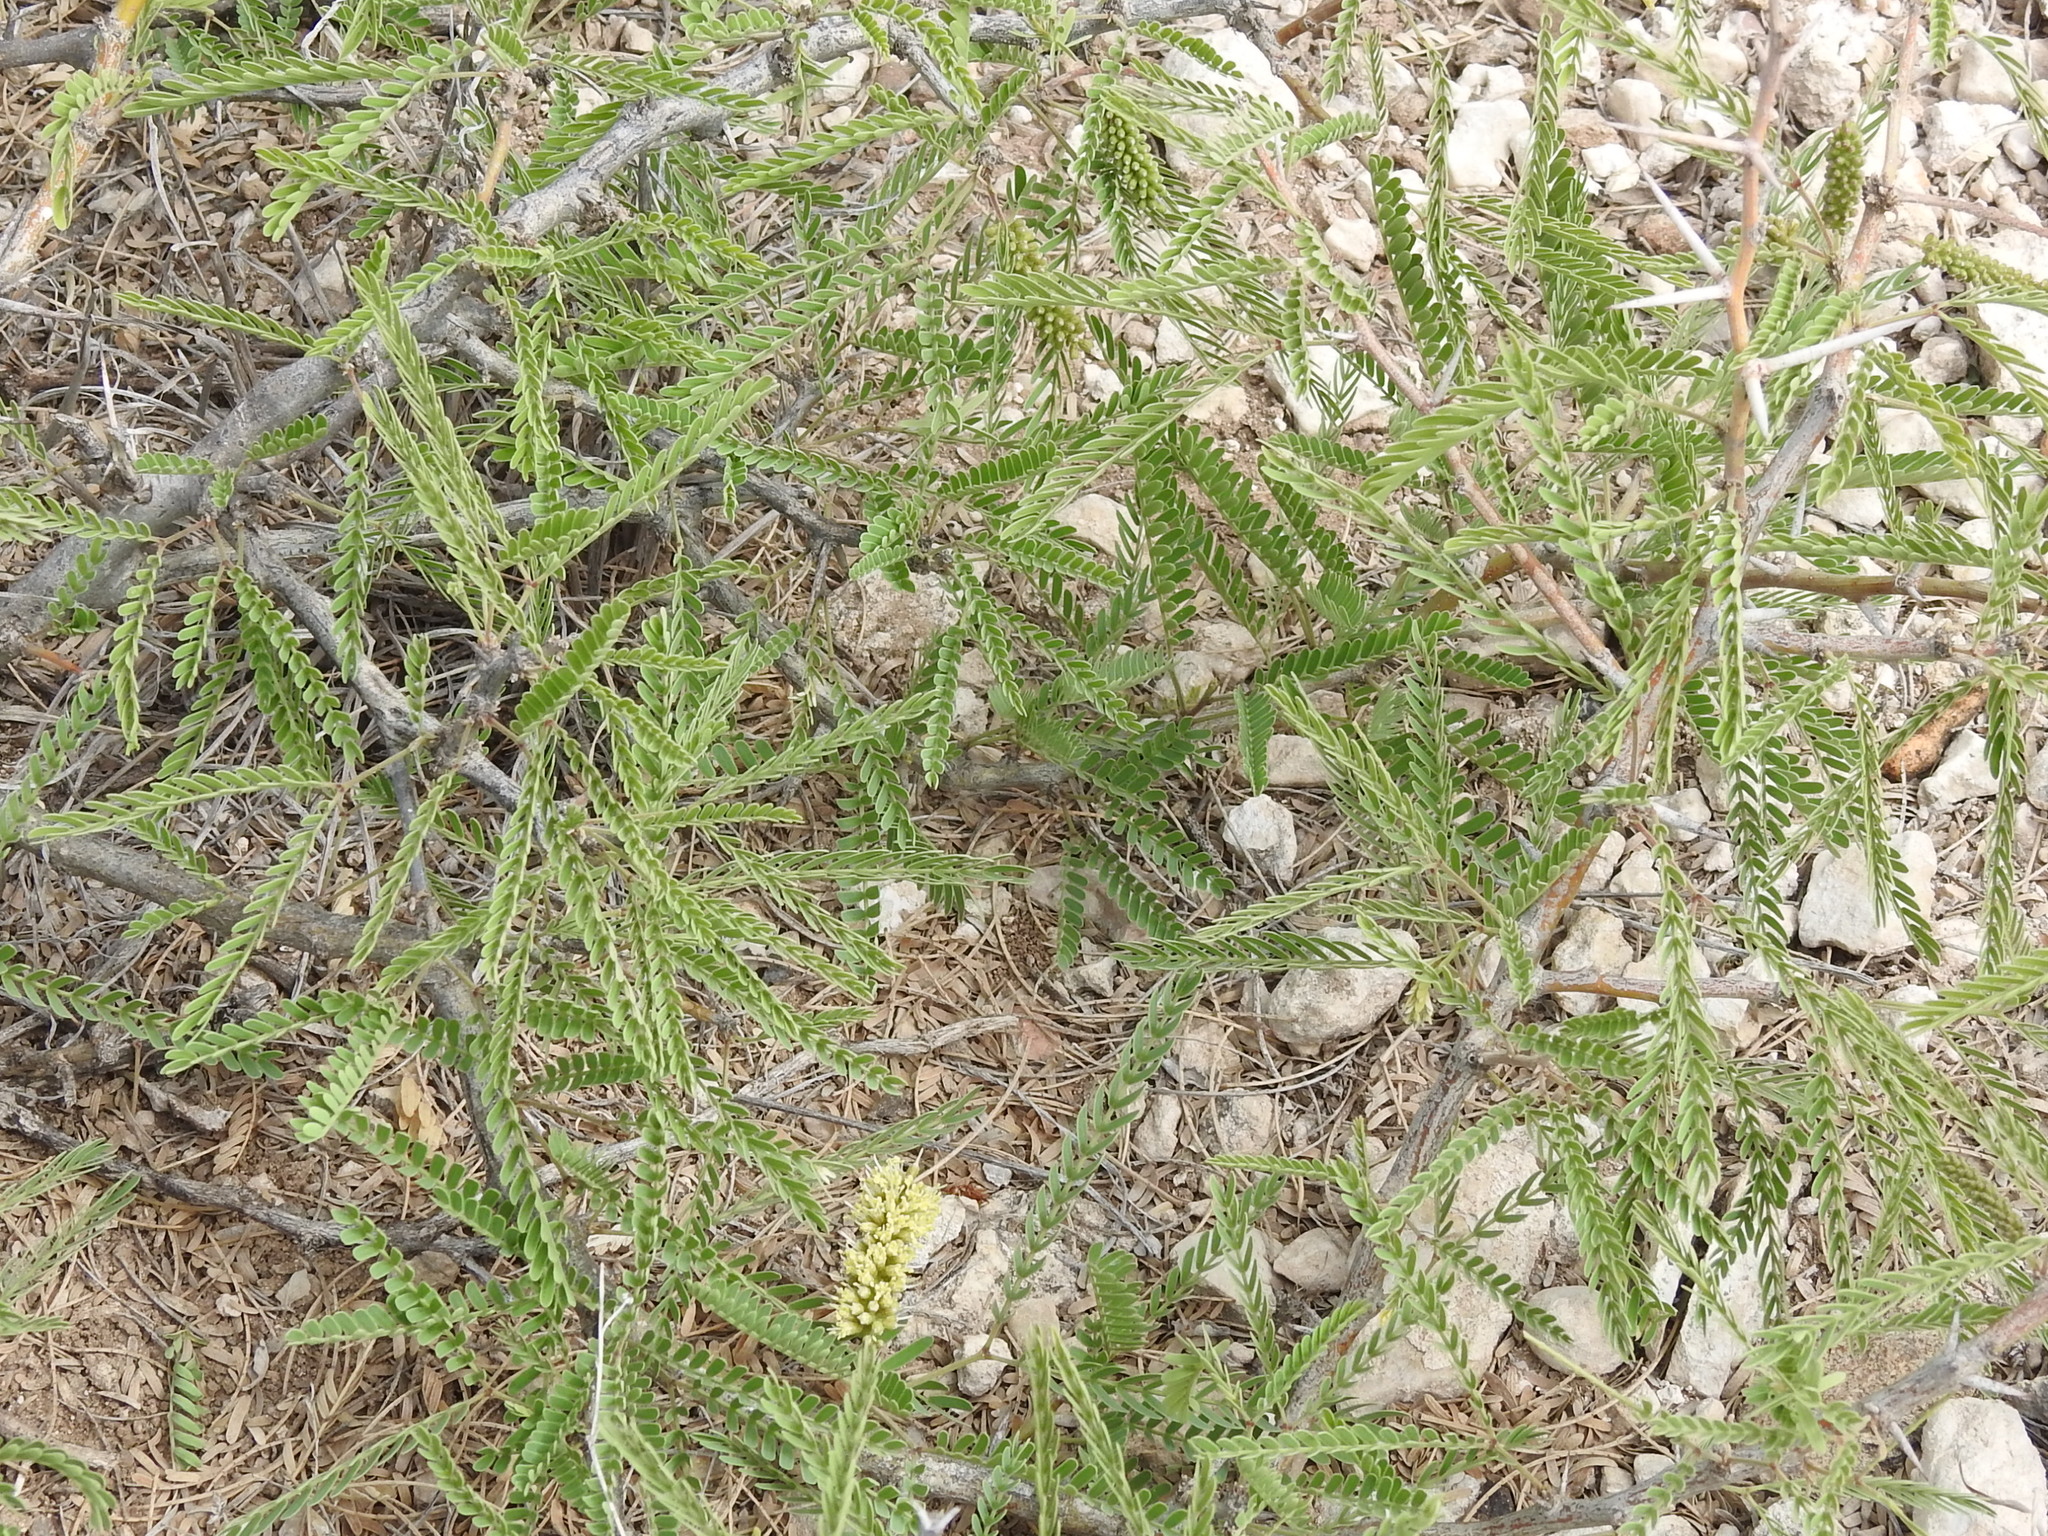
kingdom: Plantae
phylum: Tracheophyta
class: Magnoliopsida
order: Fabales
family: Fabaceae
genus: Prosopis
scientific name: Prosopis glandulosa
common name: Honey mesquite
